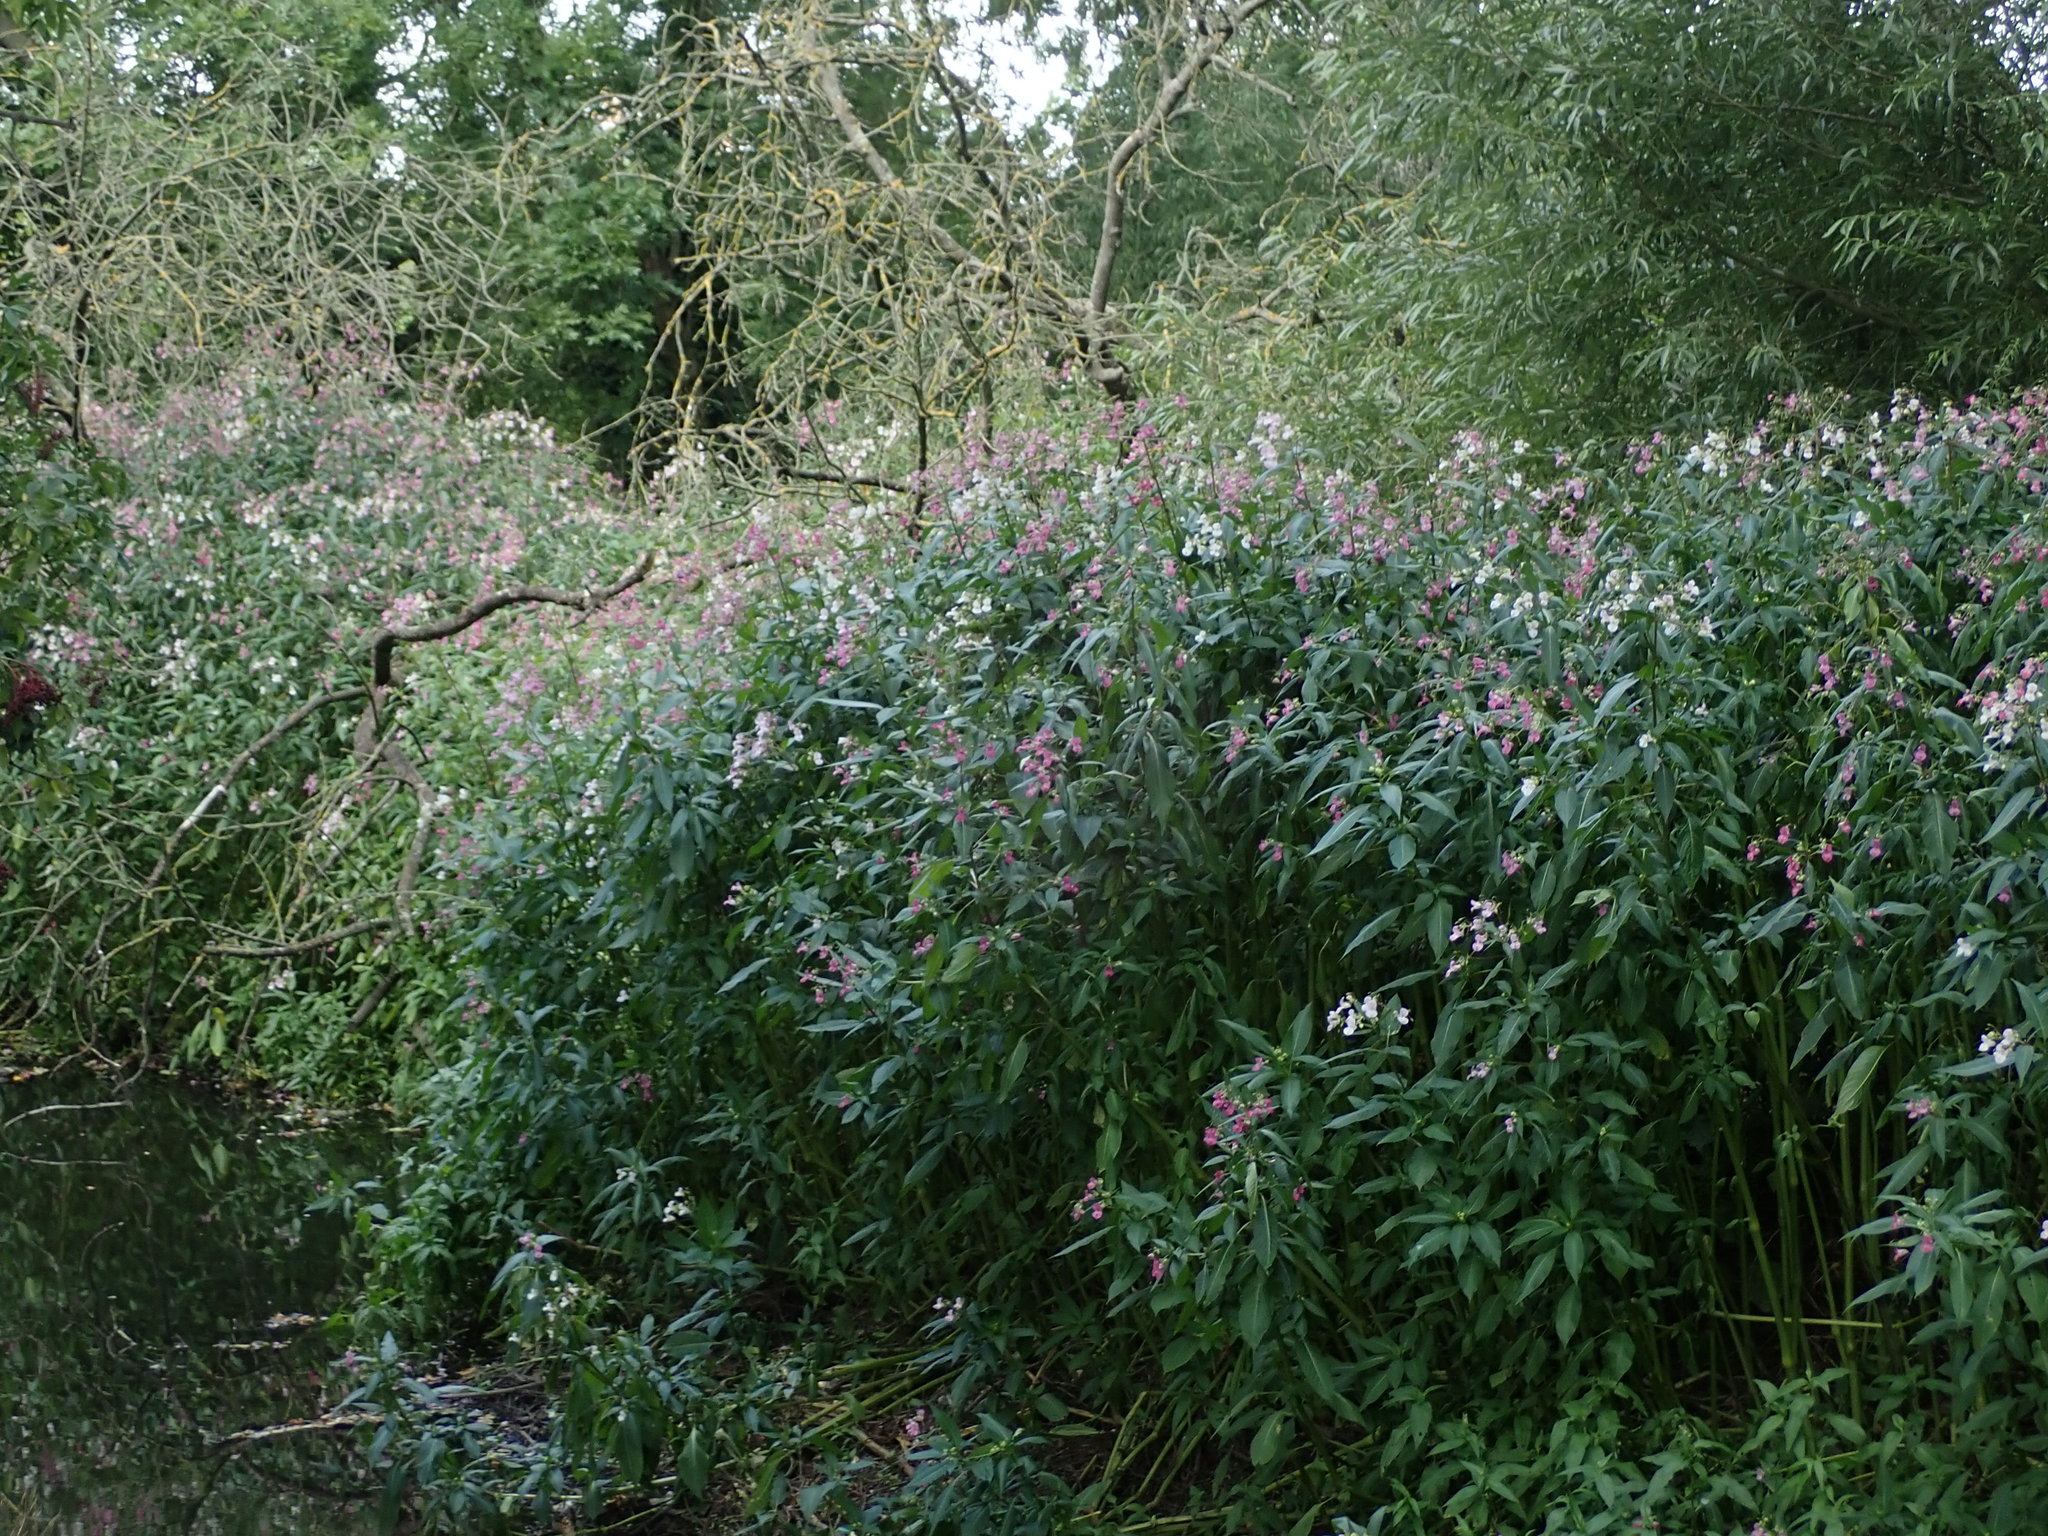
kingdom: Plantae
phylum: Tracheophyta
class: Magnoliopsida
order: Ericales
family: Balsaminaceae
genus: Impatiens
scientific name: Impatiens glandulifera
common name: Himalayan balsam
